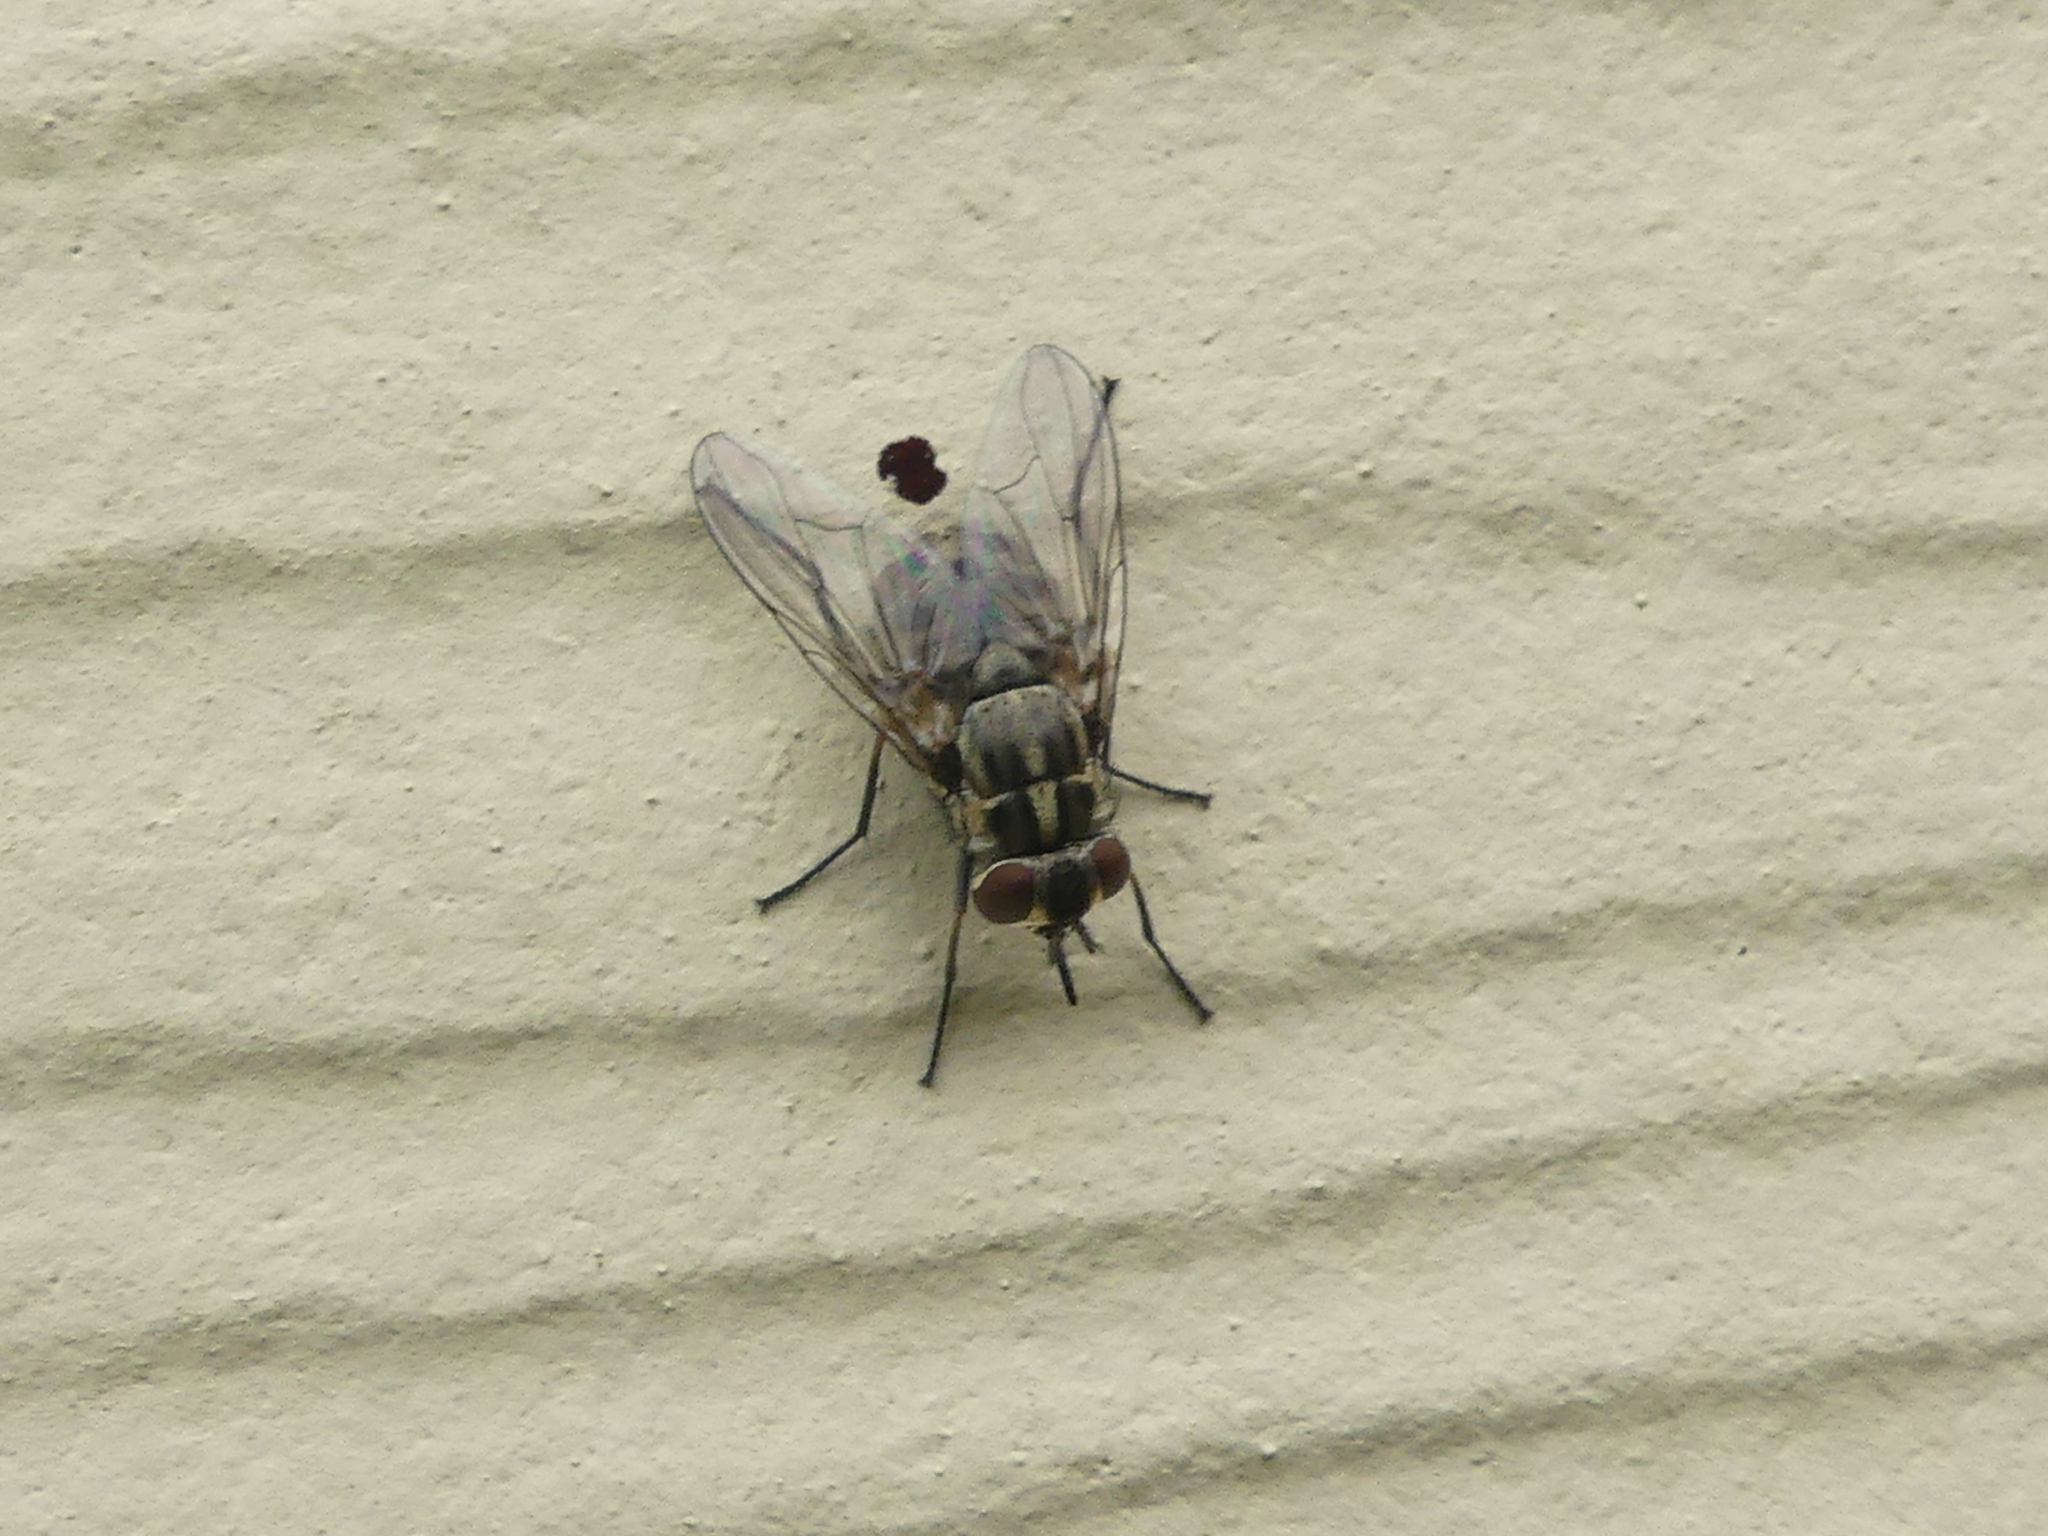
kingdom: Animalia
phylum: Arthropoda
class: Insecta
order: Diptera
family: Muscidae
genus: Stomoxys
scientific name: Stomoxys calcitrans
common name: Stable fly
